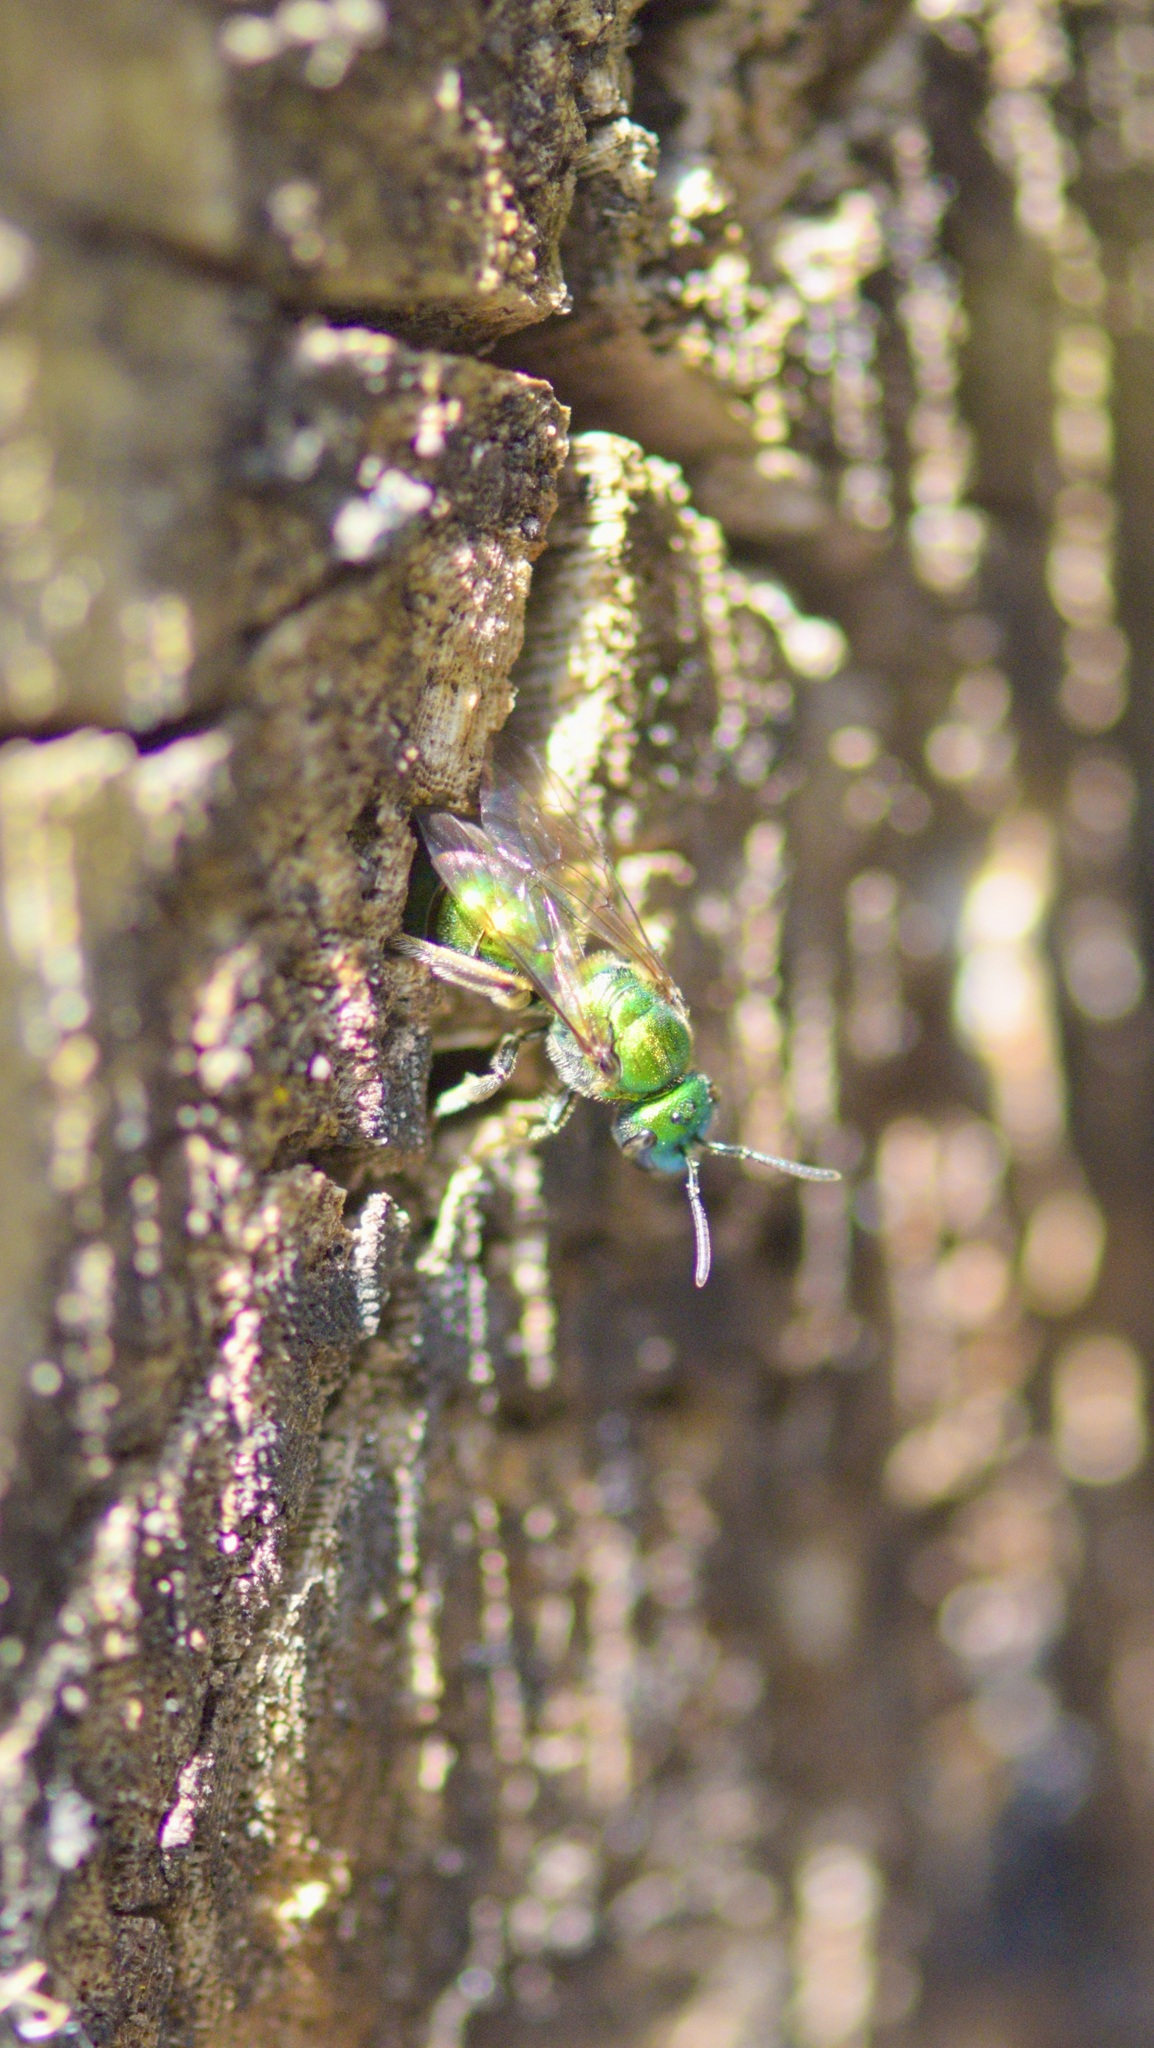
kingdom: Animalia
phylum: Arthropoda
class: Insecta
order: Hymenoptera
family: Halictidae
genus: Augochlora
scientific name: Augochlora pura
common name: Pure green sweat bee
